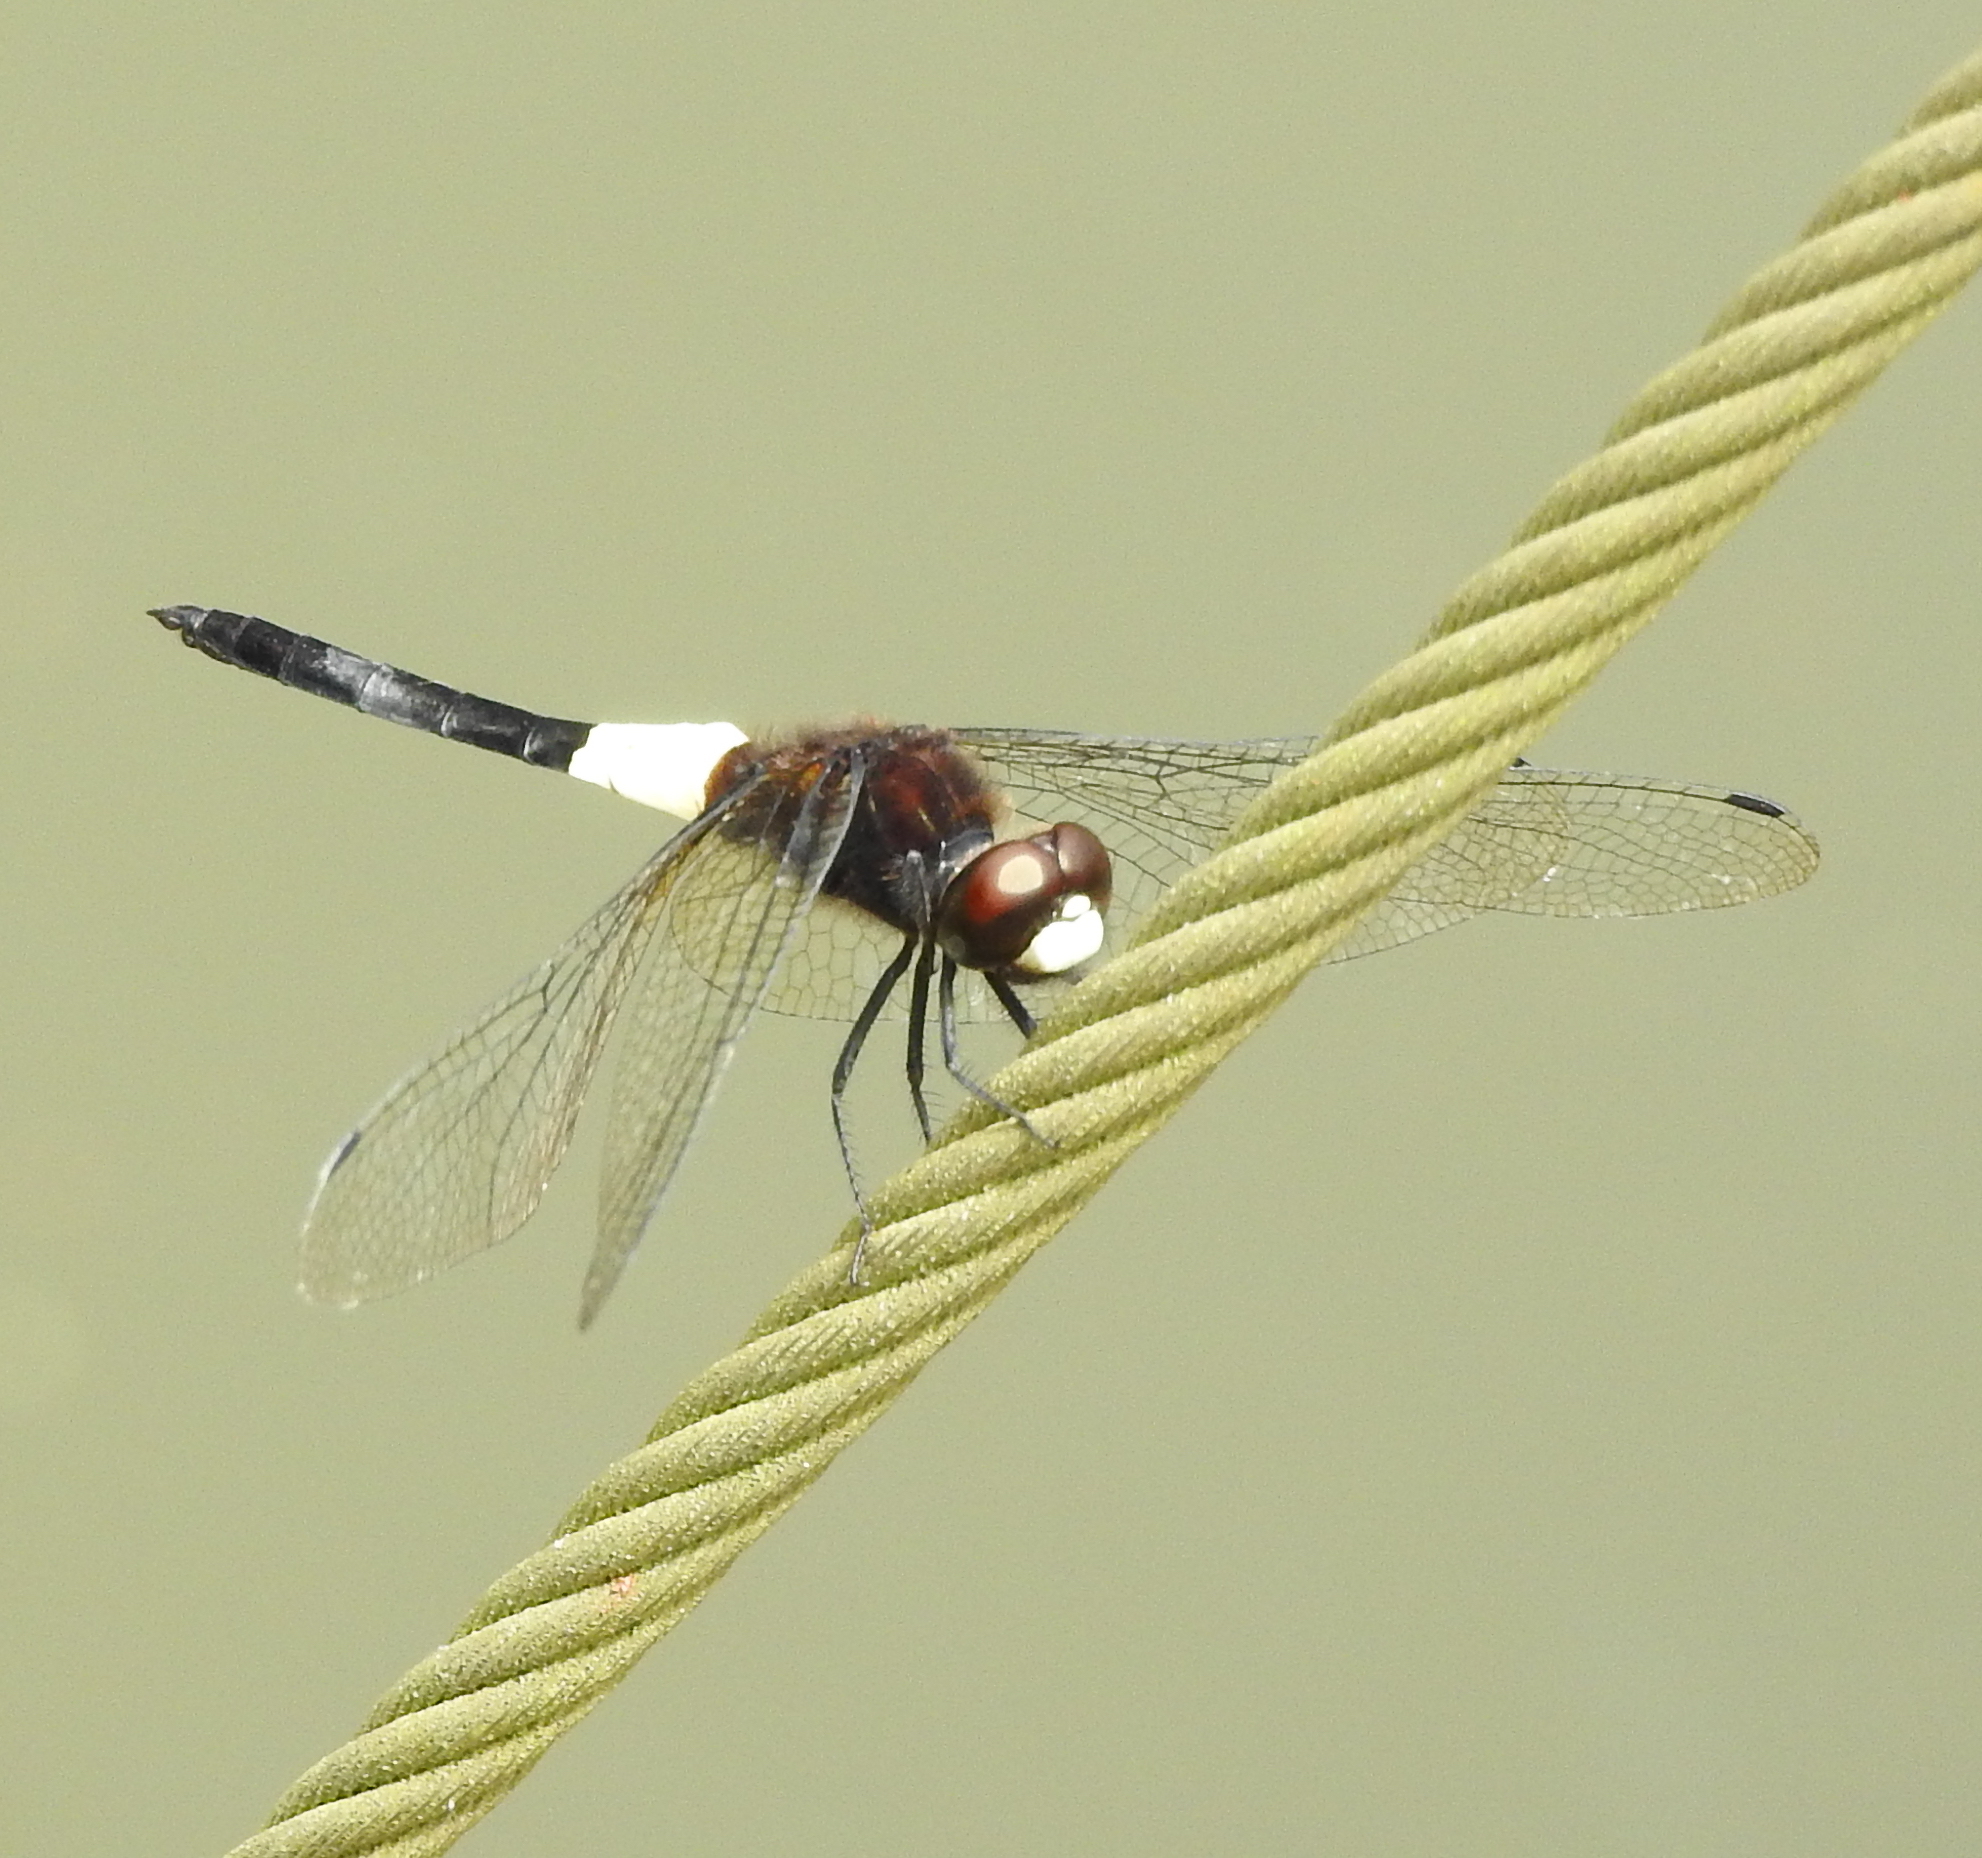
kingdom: Animalia
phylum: Arthropoda
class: Insecta
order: Odonata
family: Libellulidae
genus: Pseudothemis
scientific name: Pseudothemis jorina
